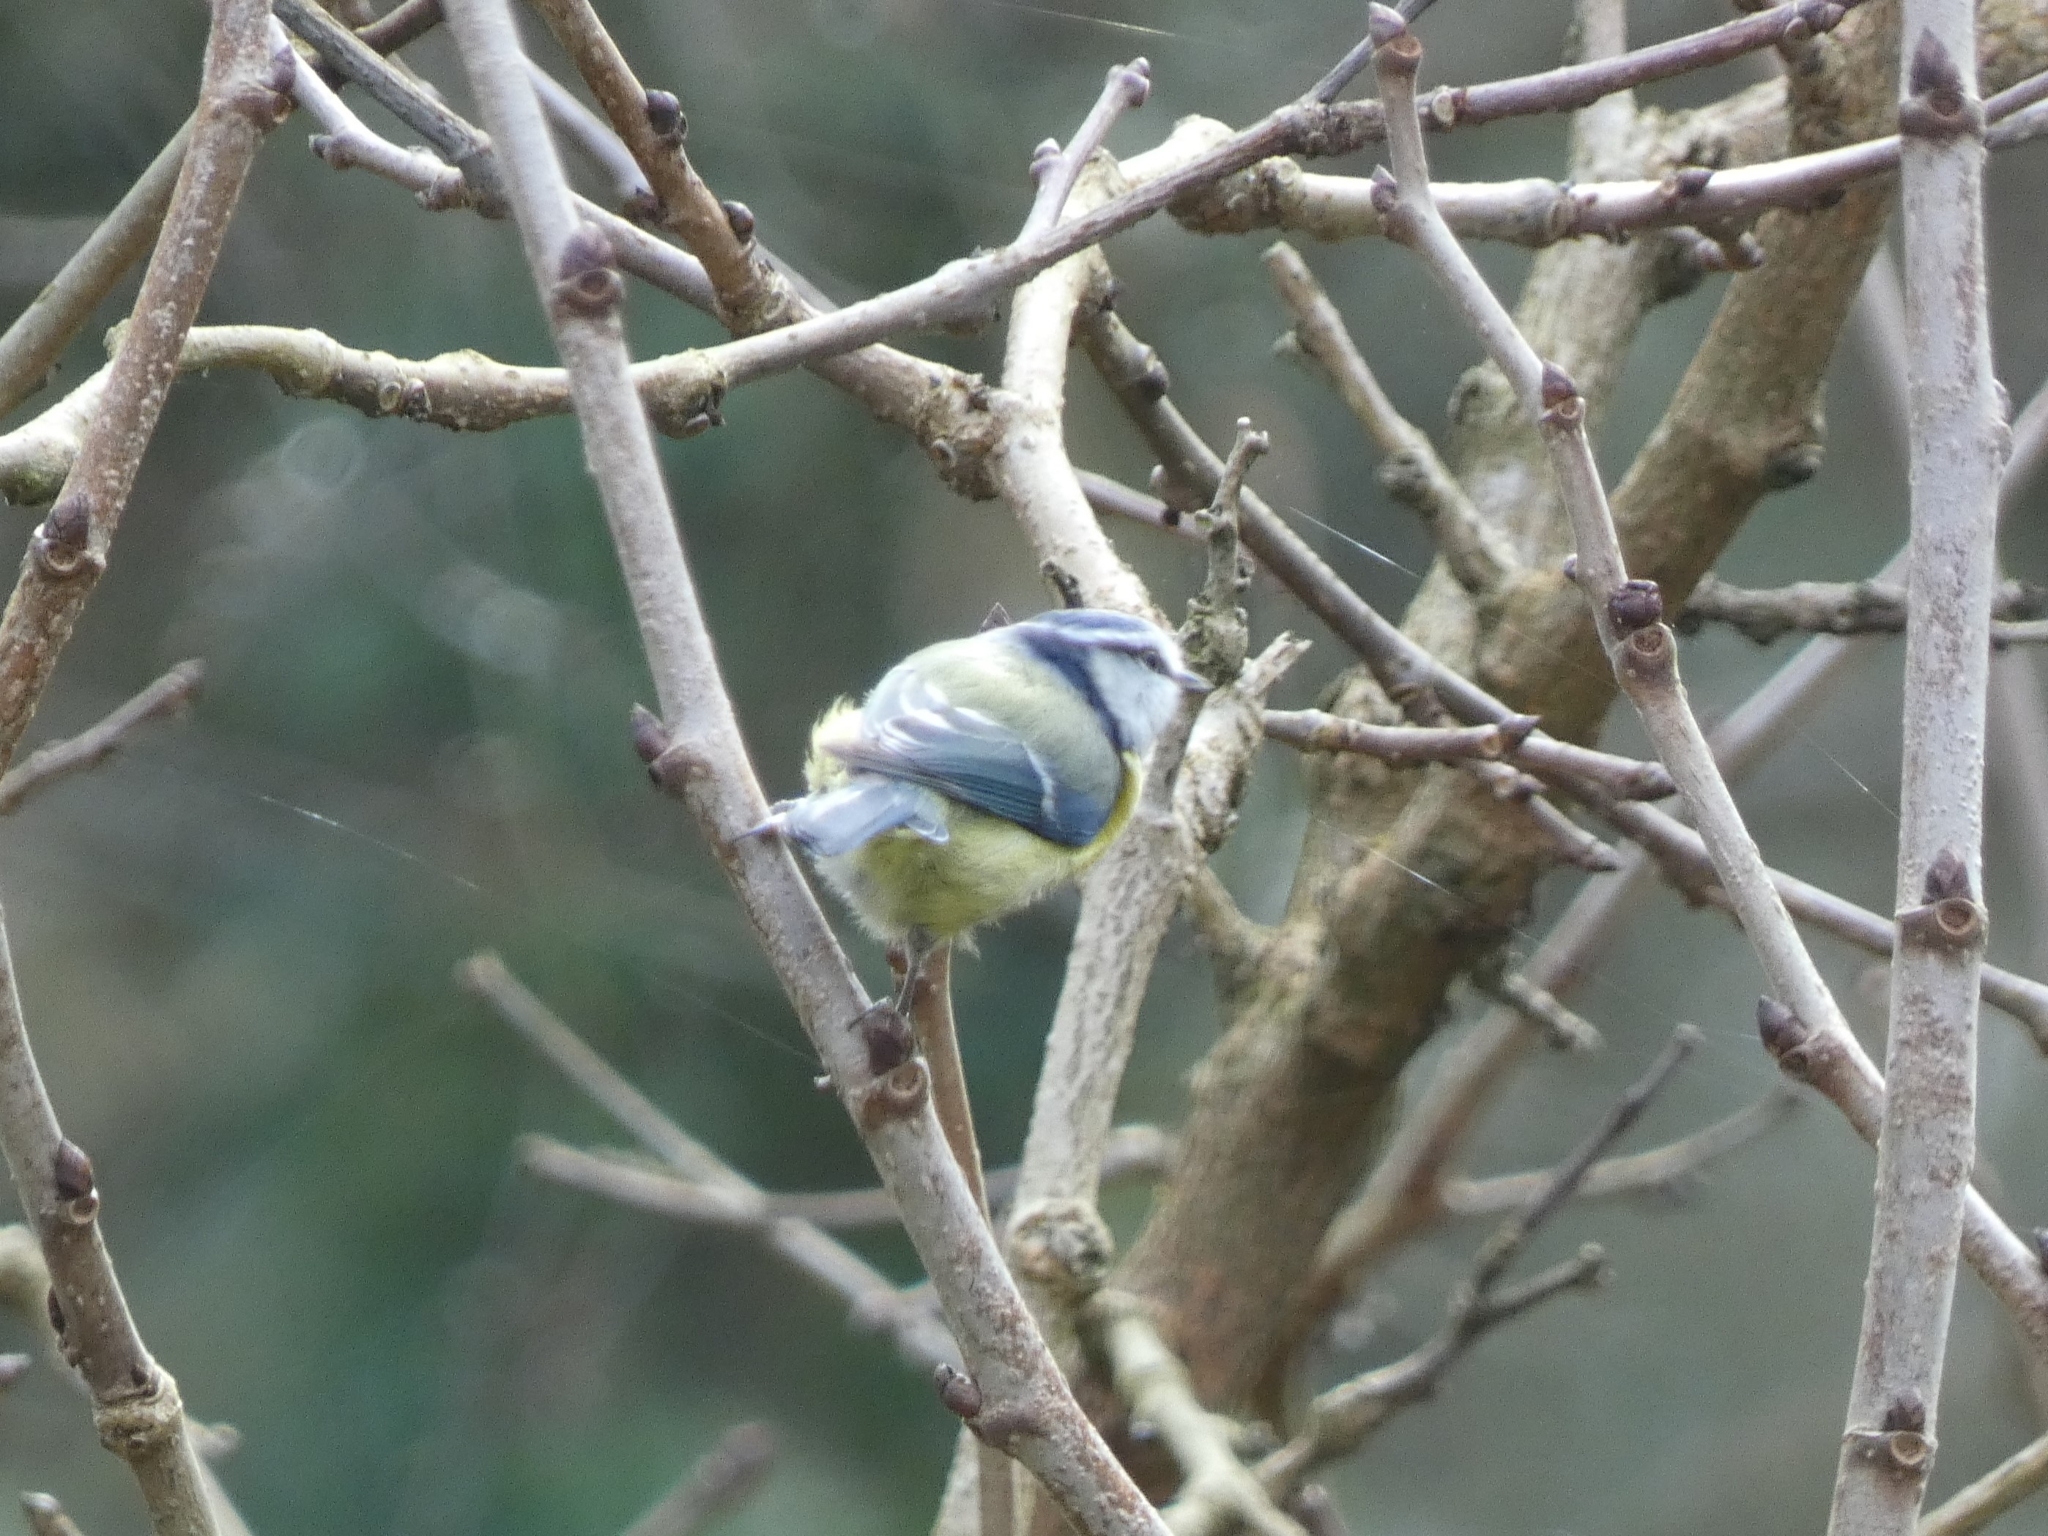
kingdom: Animalia
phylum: Chordata
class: Aves
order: Passeriformes
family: Paridae
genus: Cyanistes
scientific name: Cyanistes caeruleus
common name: Eurasian blue tit
